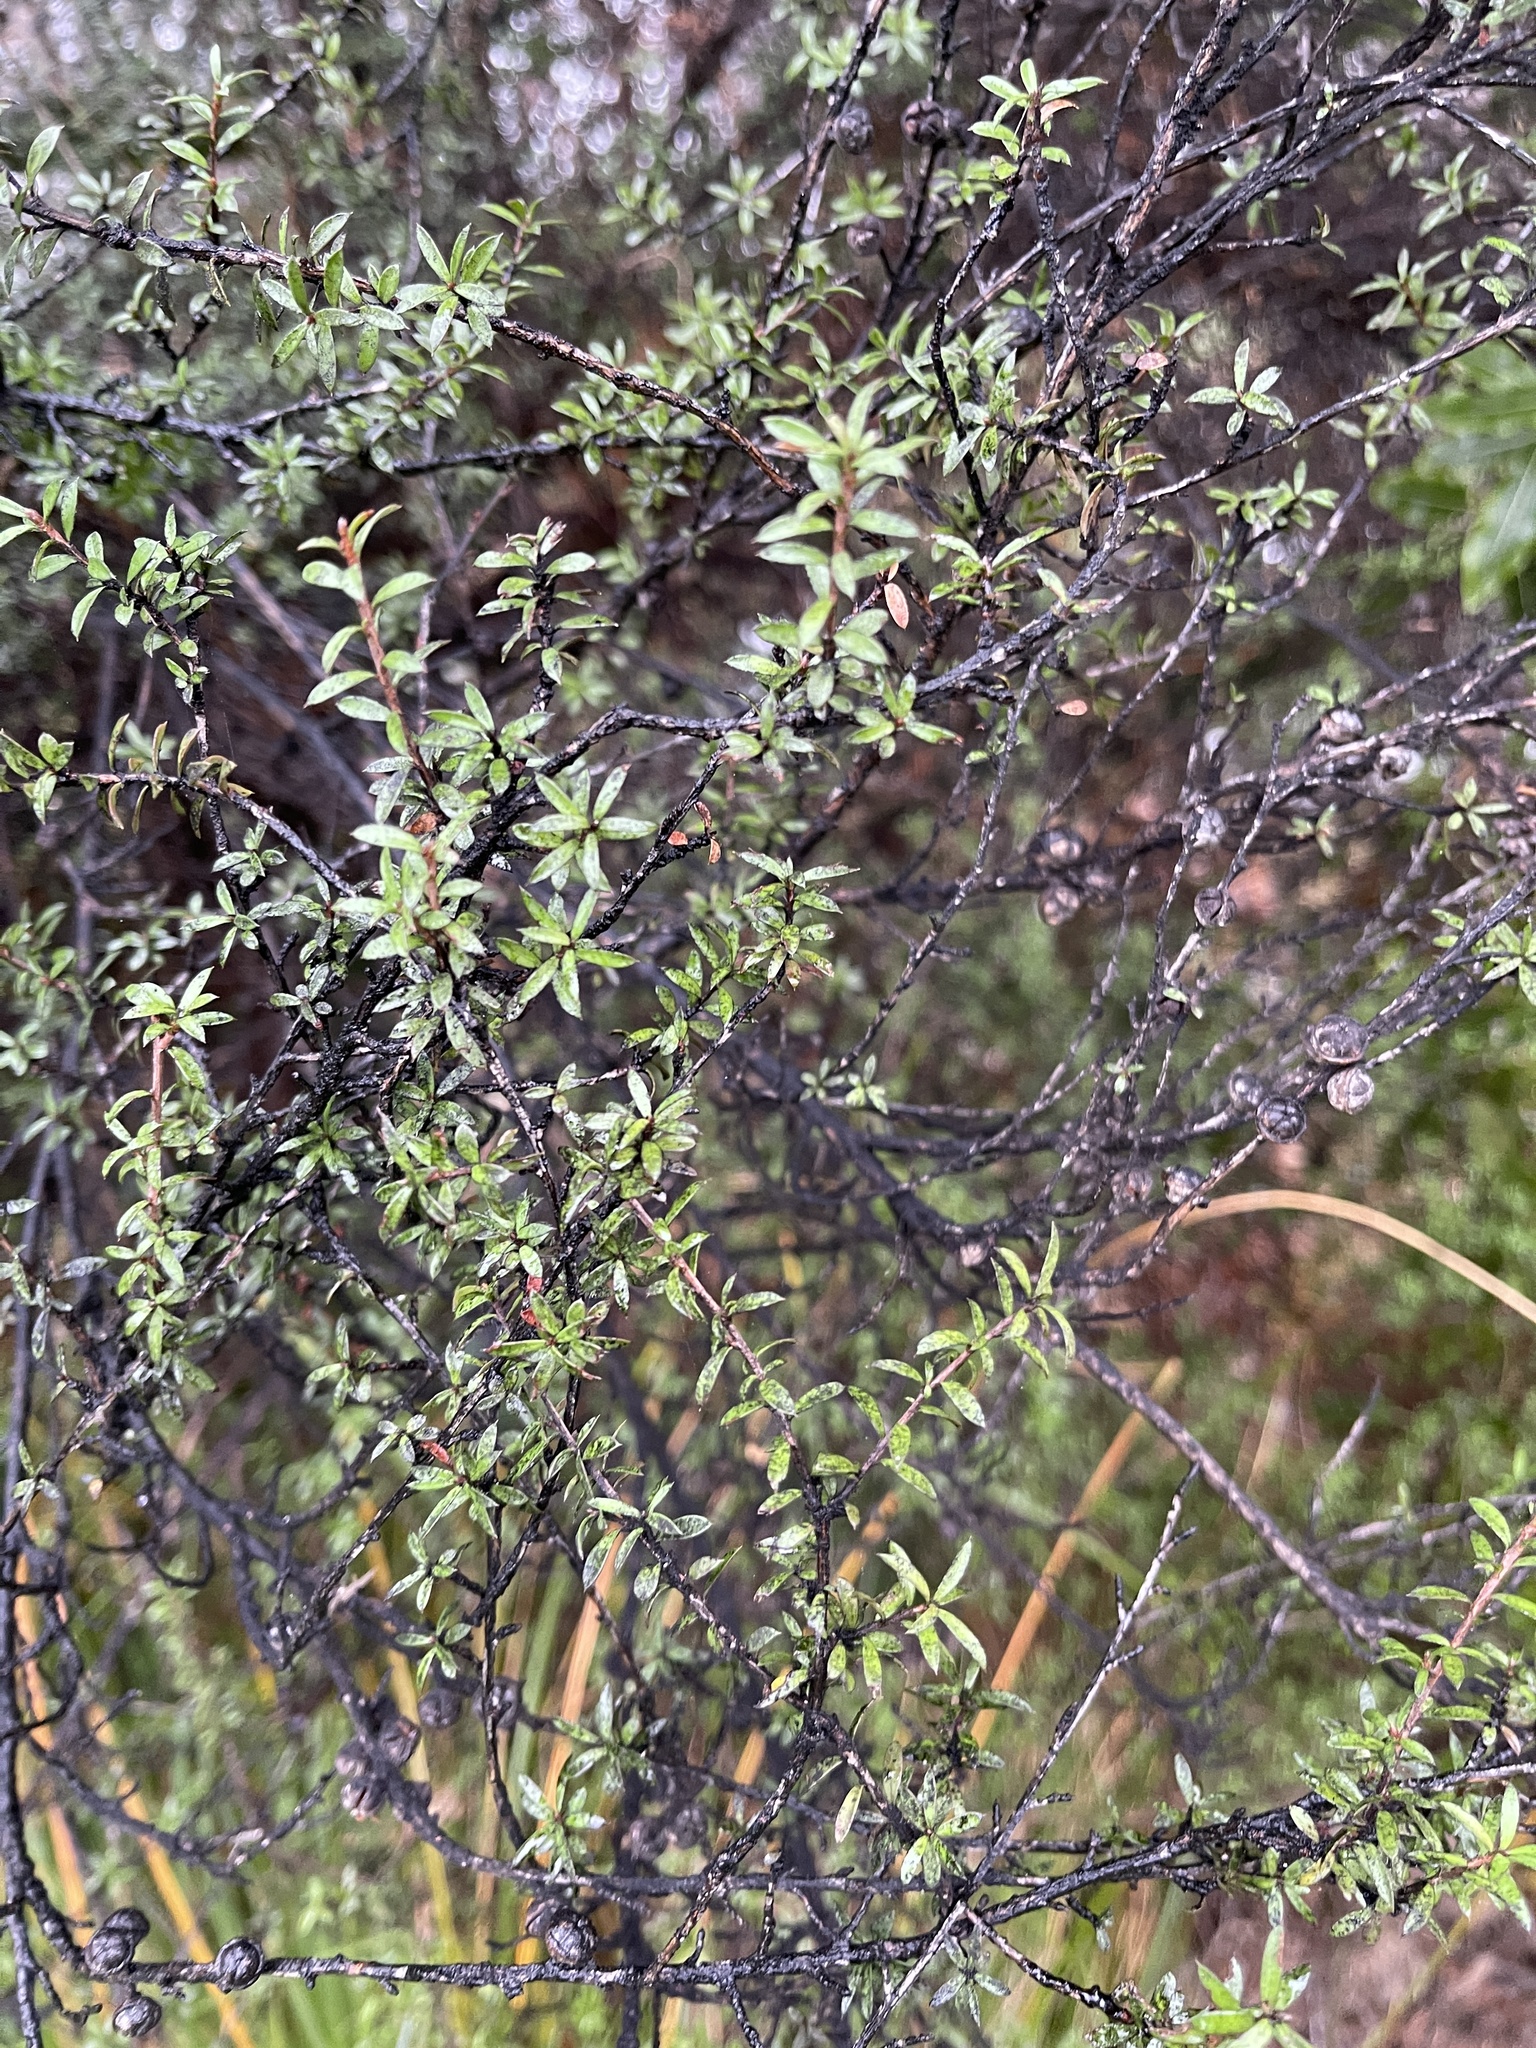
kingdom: Plantae
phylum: Tracheophyta
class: Magnoliopsida
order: Myrtales
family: Myrtaceae
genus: Leptospermum
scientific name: Leptospermum scoparium
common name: Broom tea-tree
